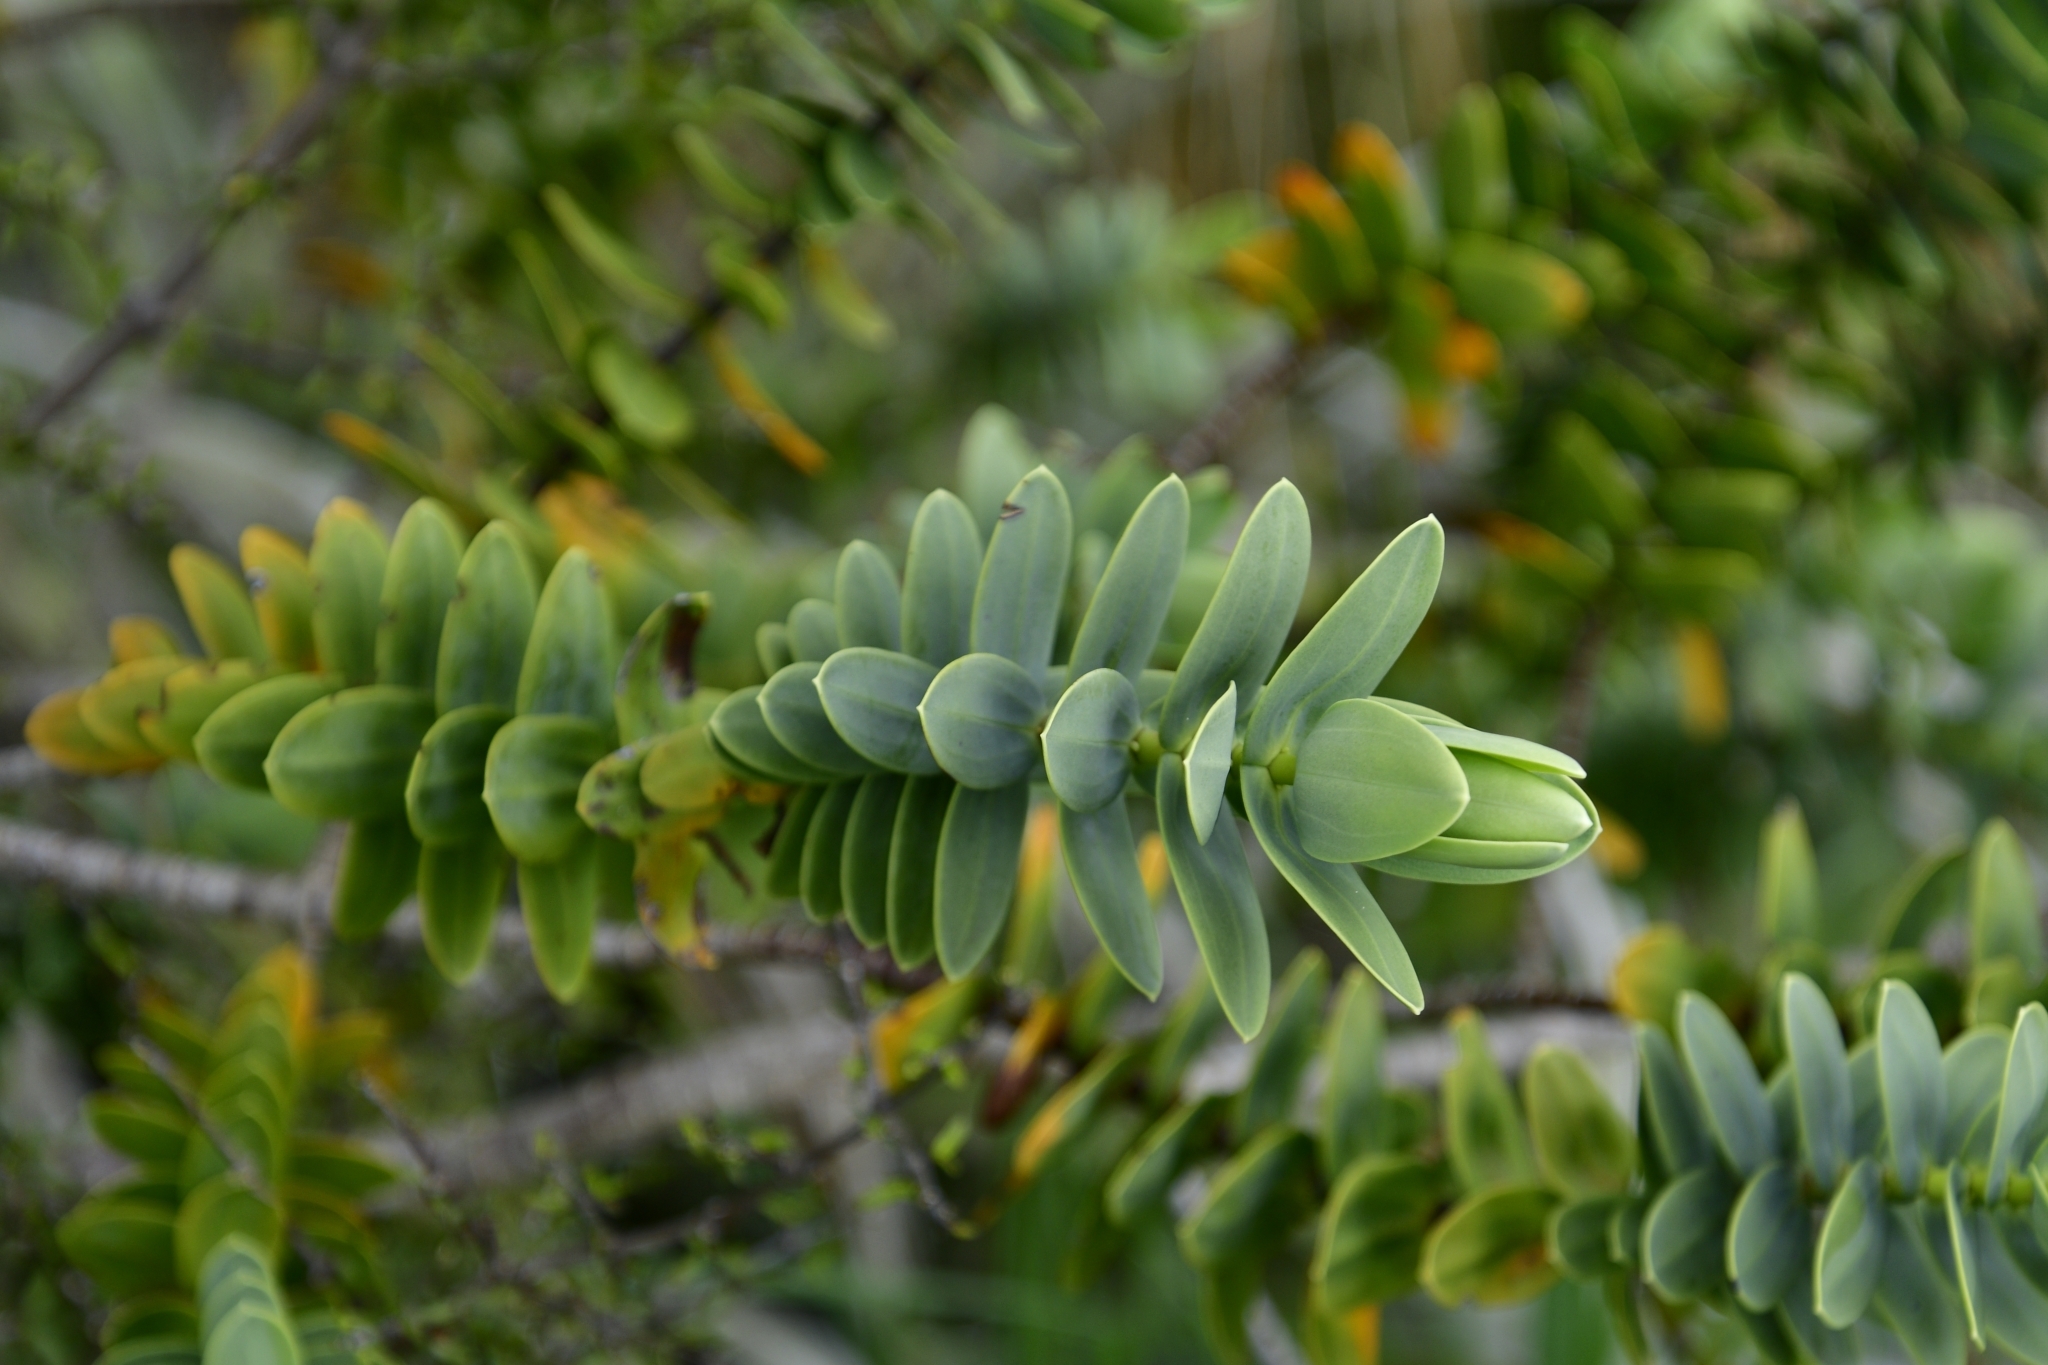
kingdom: Plantae
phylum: Tracheophyta
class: Magnoliopsida
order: Lamiales
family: Plantaginaceae
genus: Veronica
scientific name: Veronica albicans
